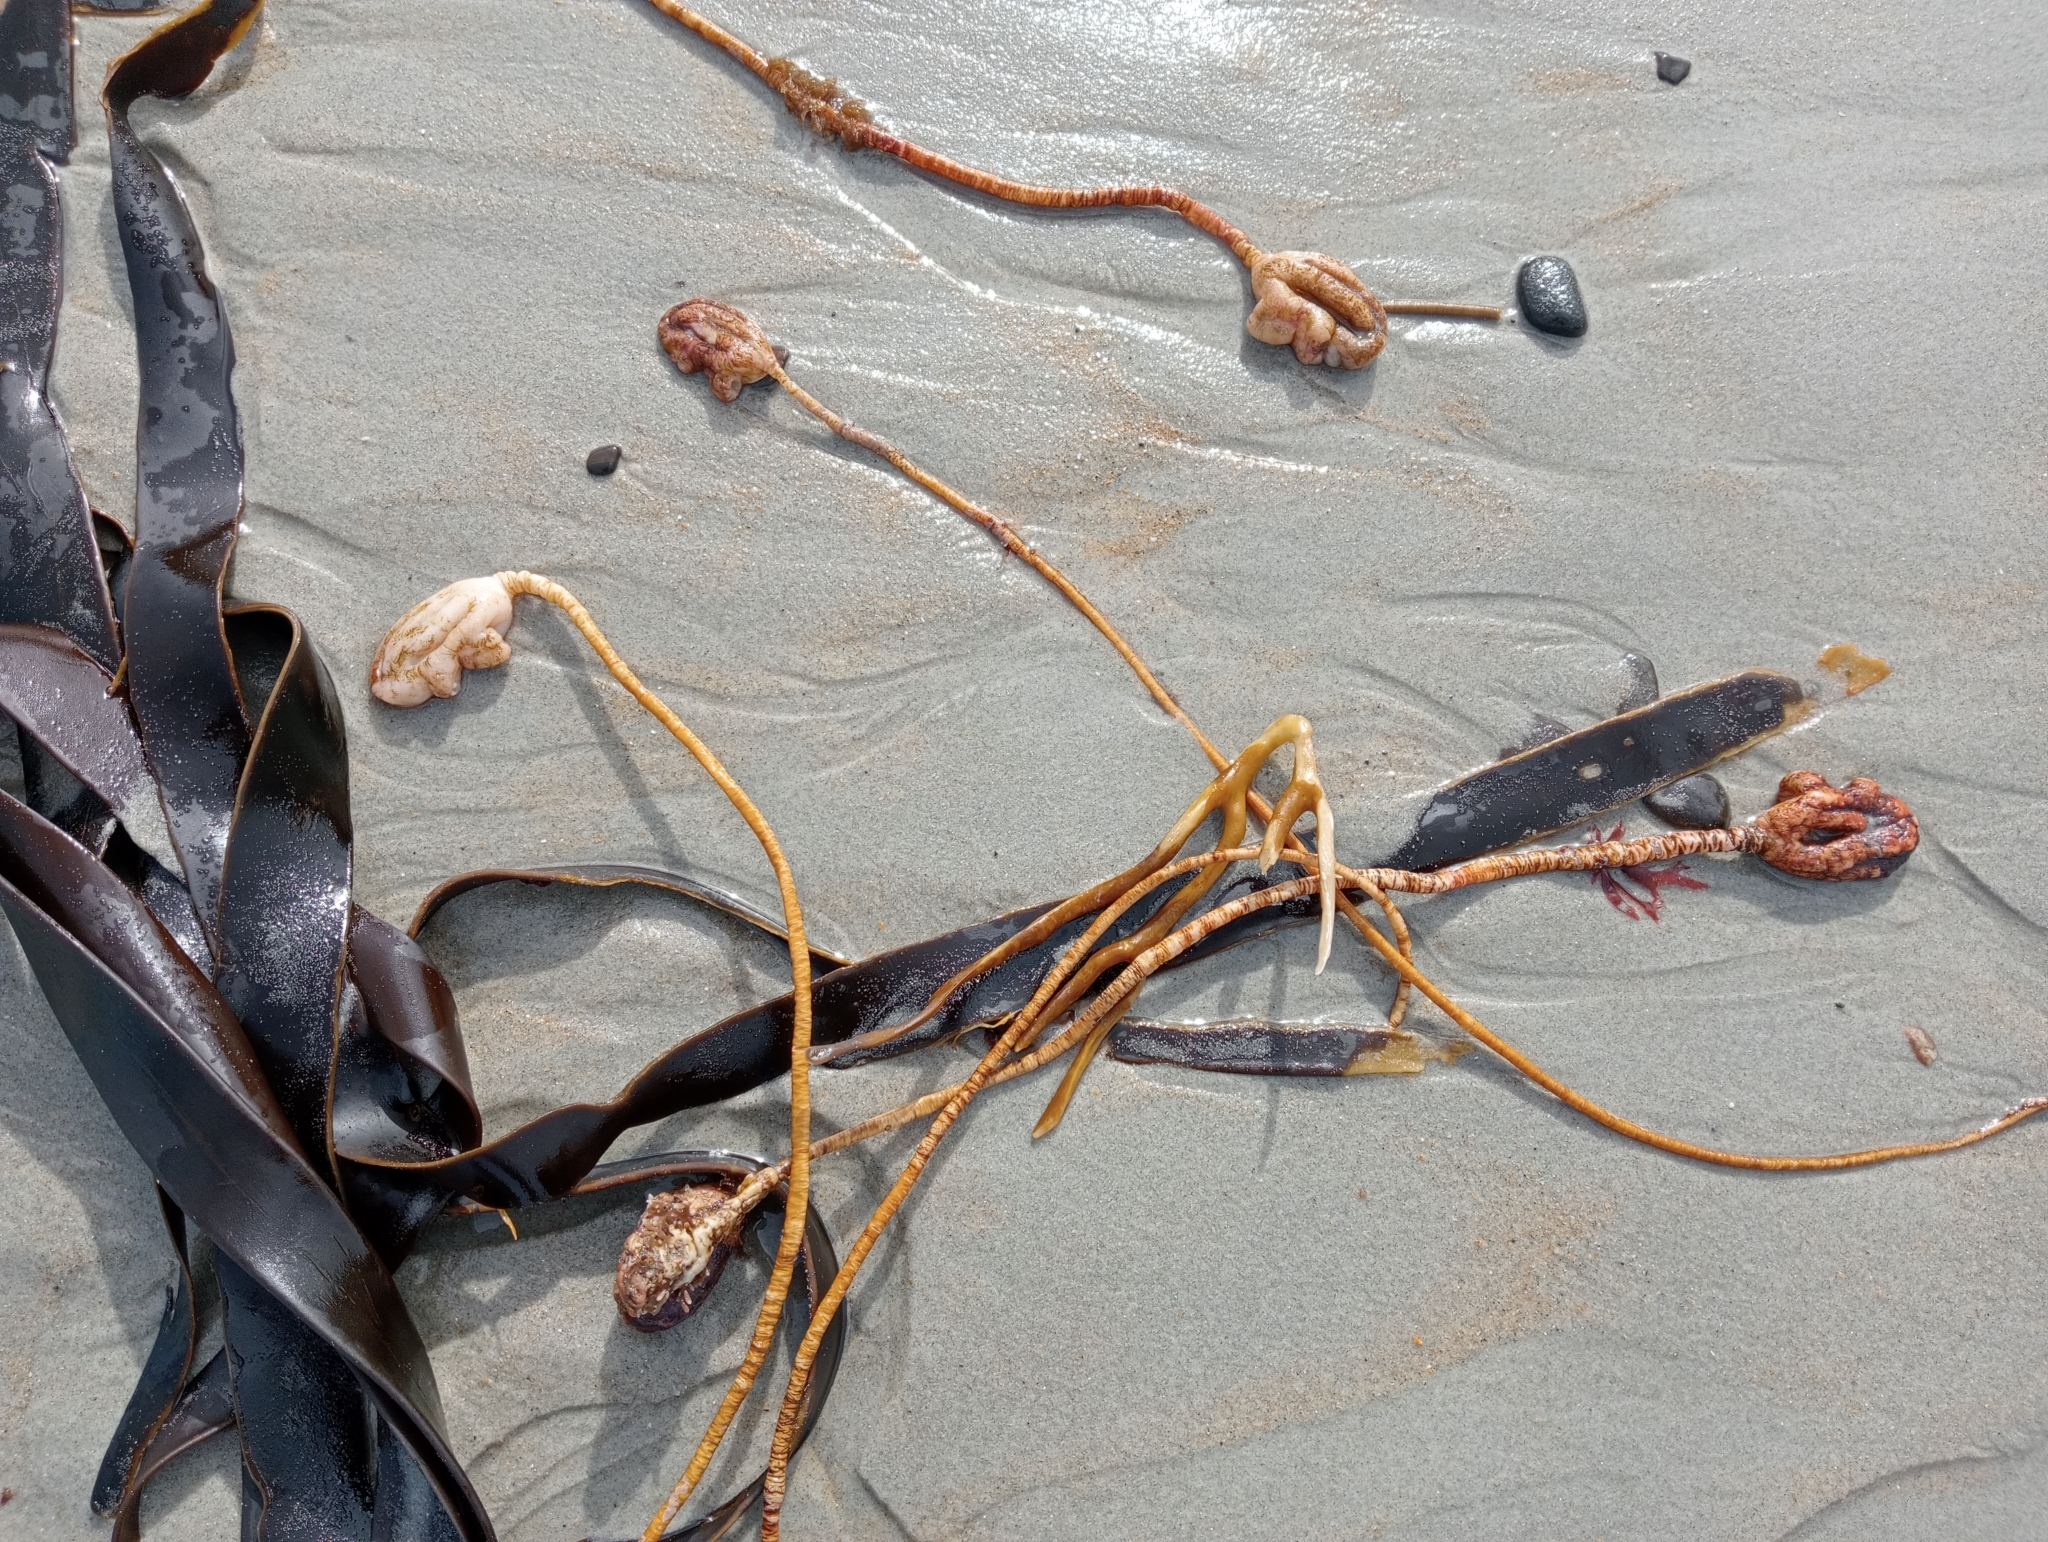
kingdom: Animalia
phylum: Chordata
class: Ascidiacea
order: Stolidobranchia
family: Pyuridae
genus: Pyura
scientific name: Pyura pachydermatina
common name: Sea tulip
